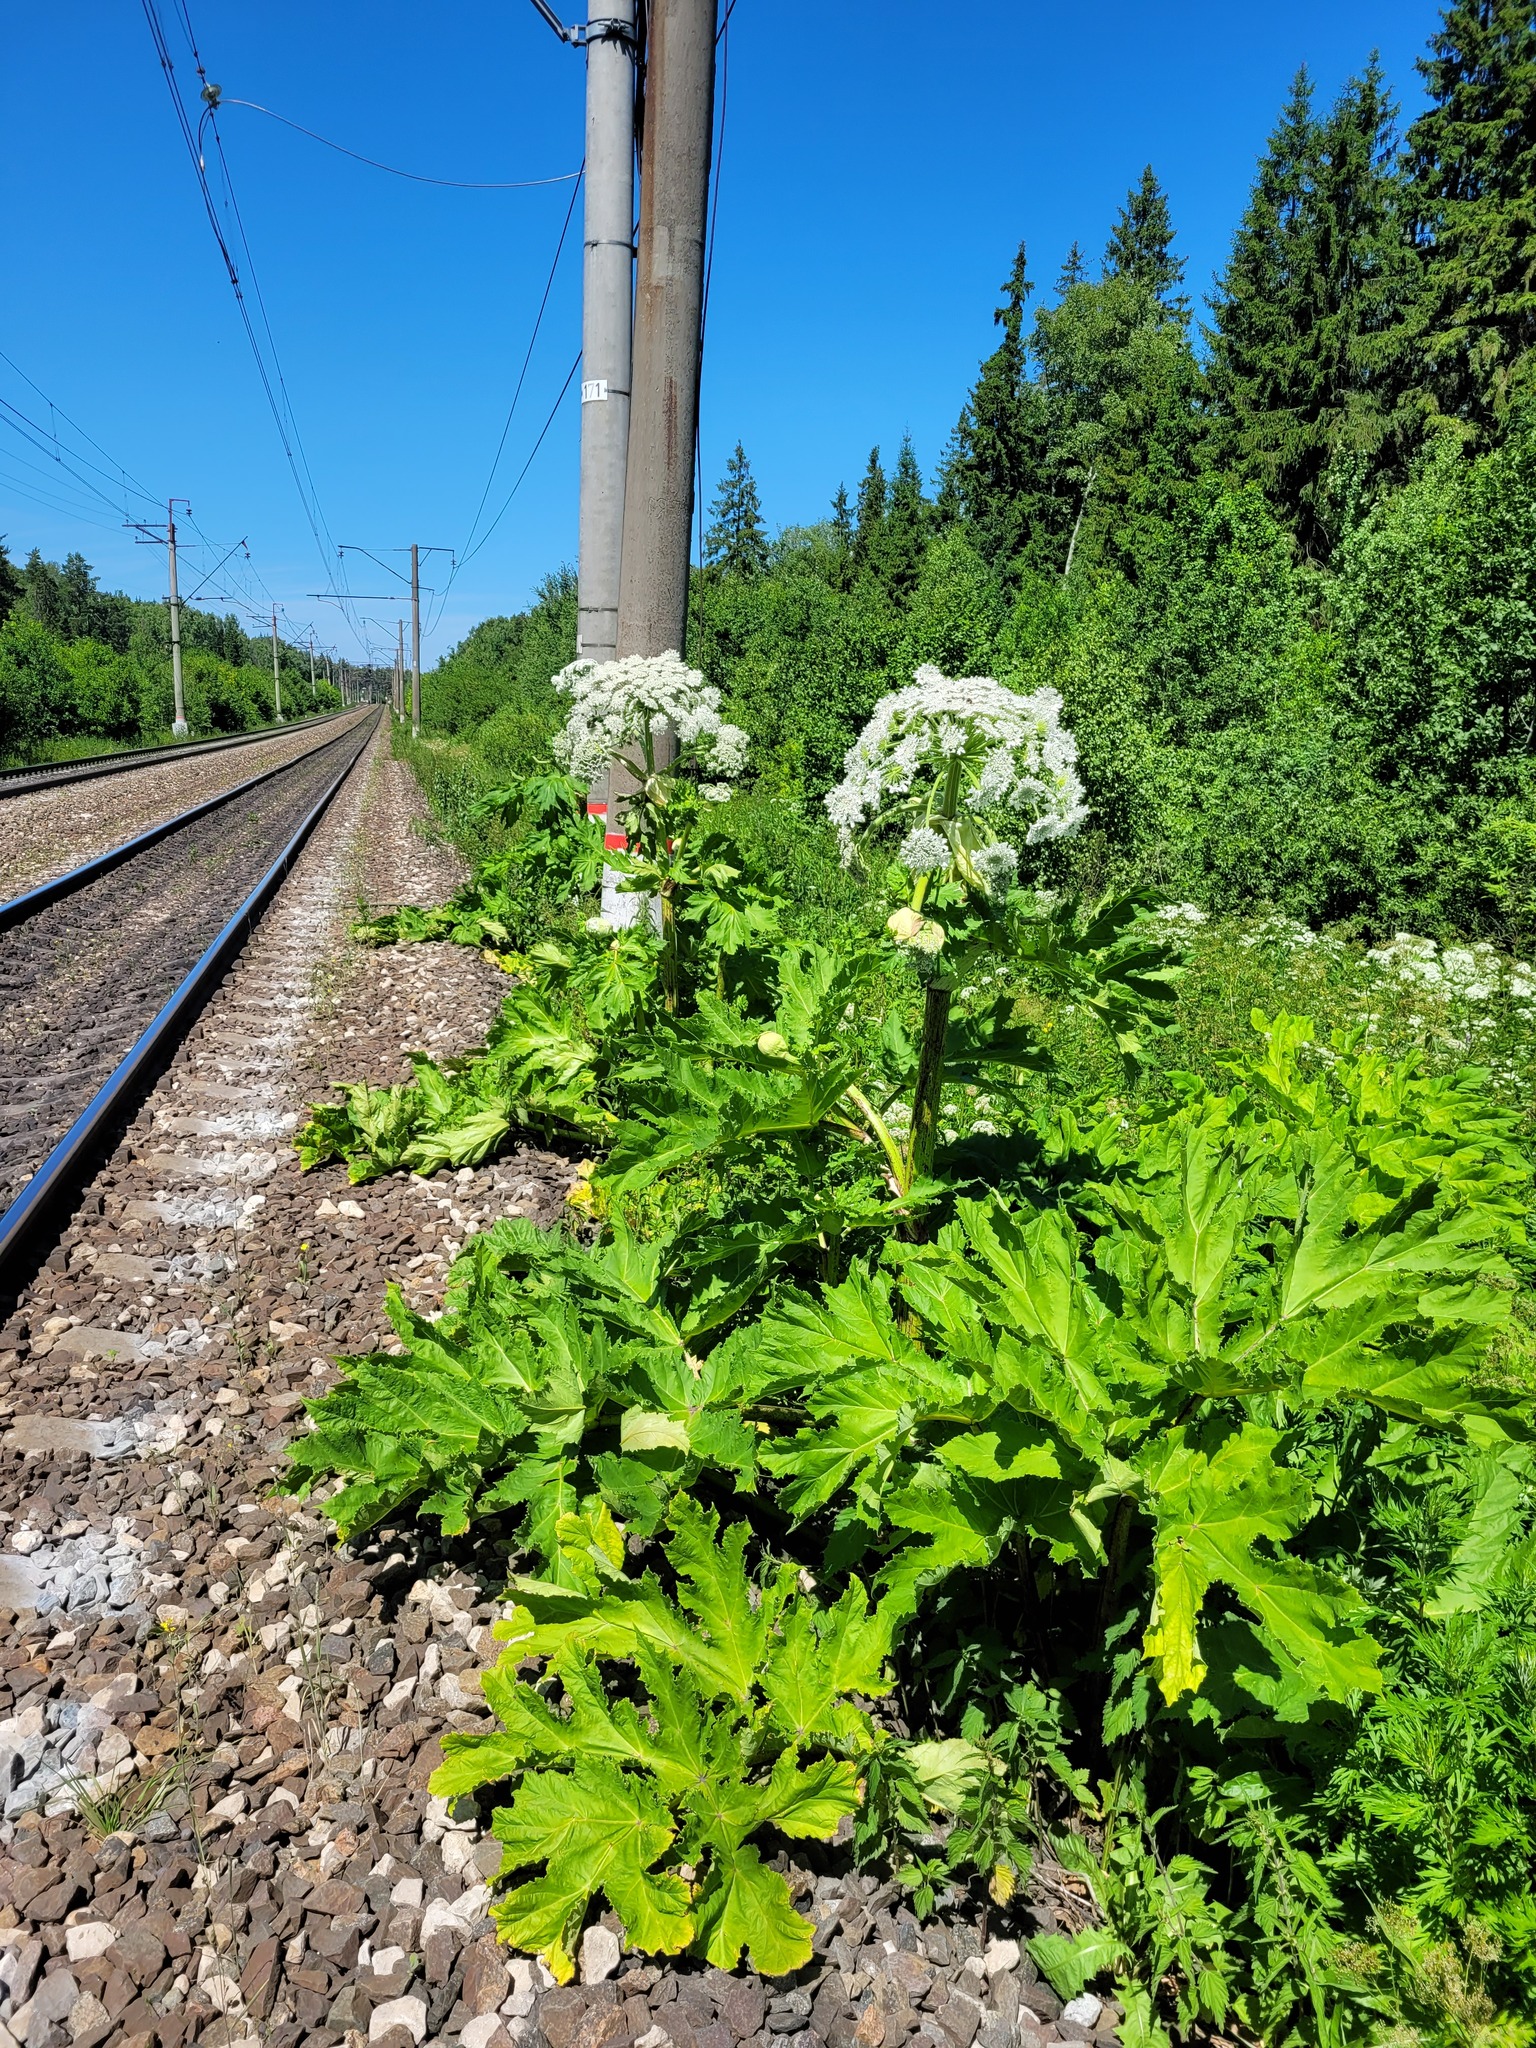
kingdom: Plantae
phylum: Tracheophyta
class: Magnoliopsida
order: Apiales
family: Apiaceae
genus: Heracleum
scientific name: Heracleum sosnowskyi
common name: Sosnowsky's hogweed
